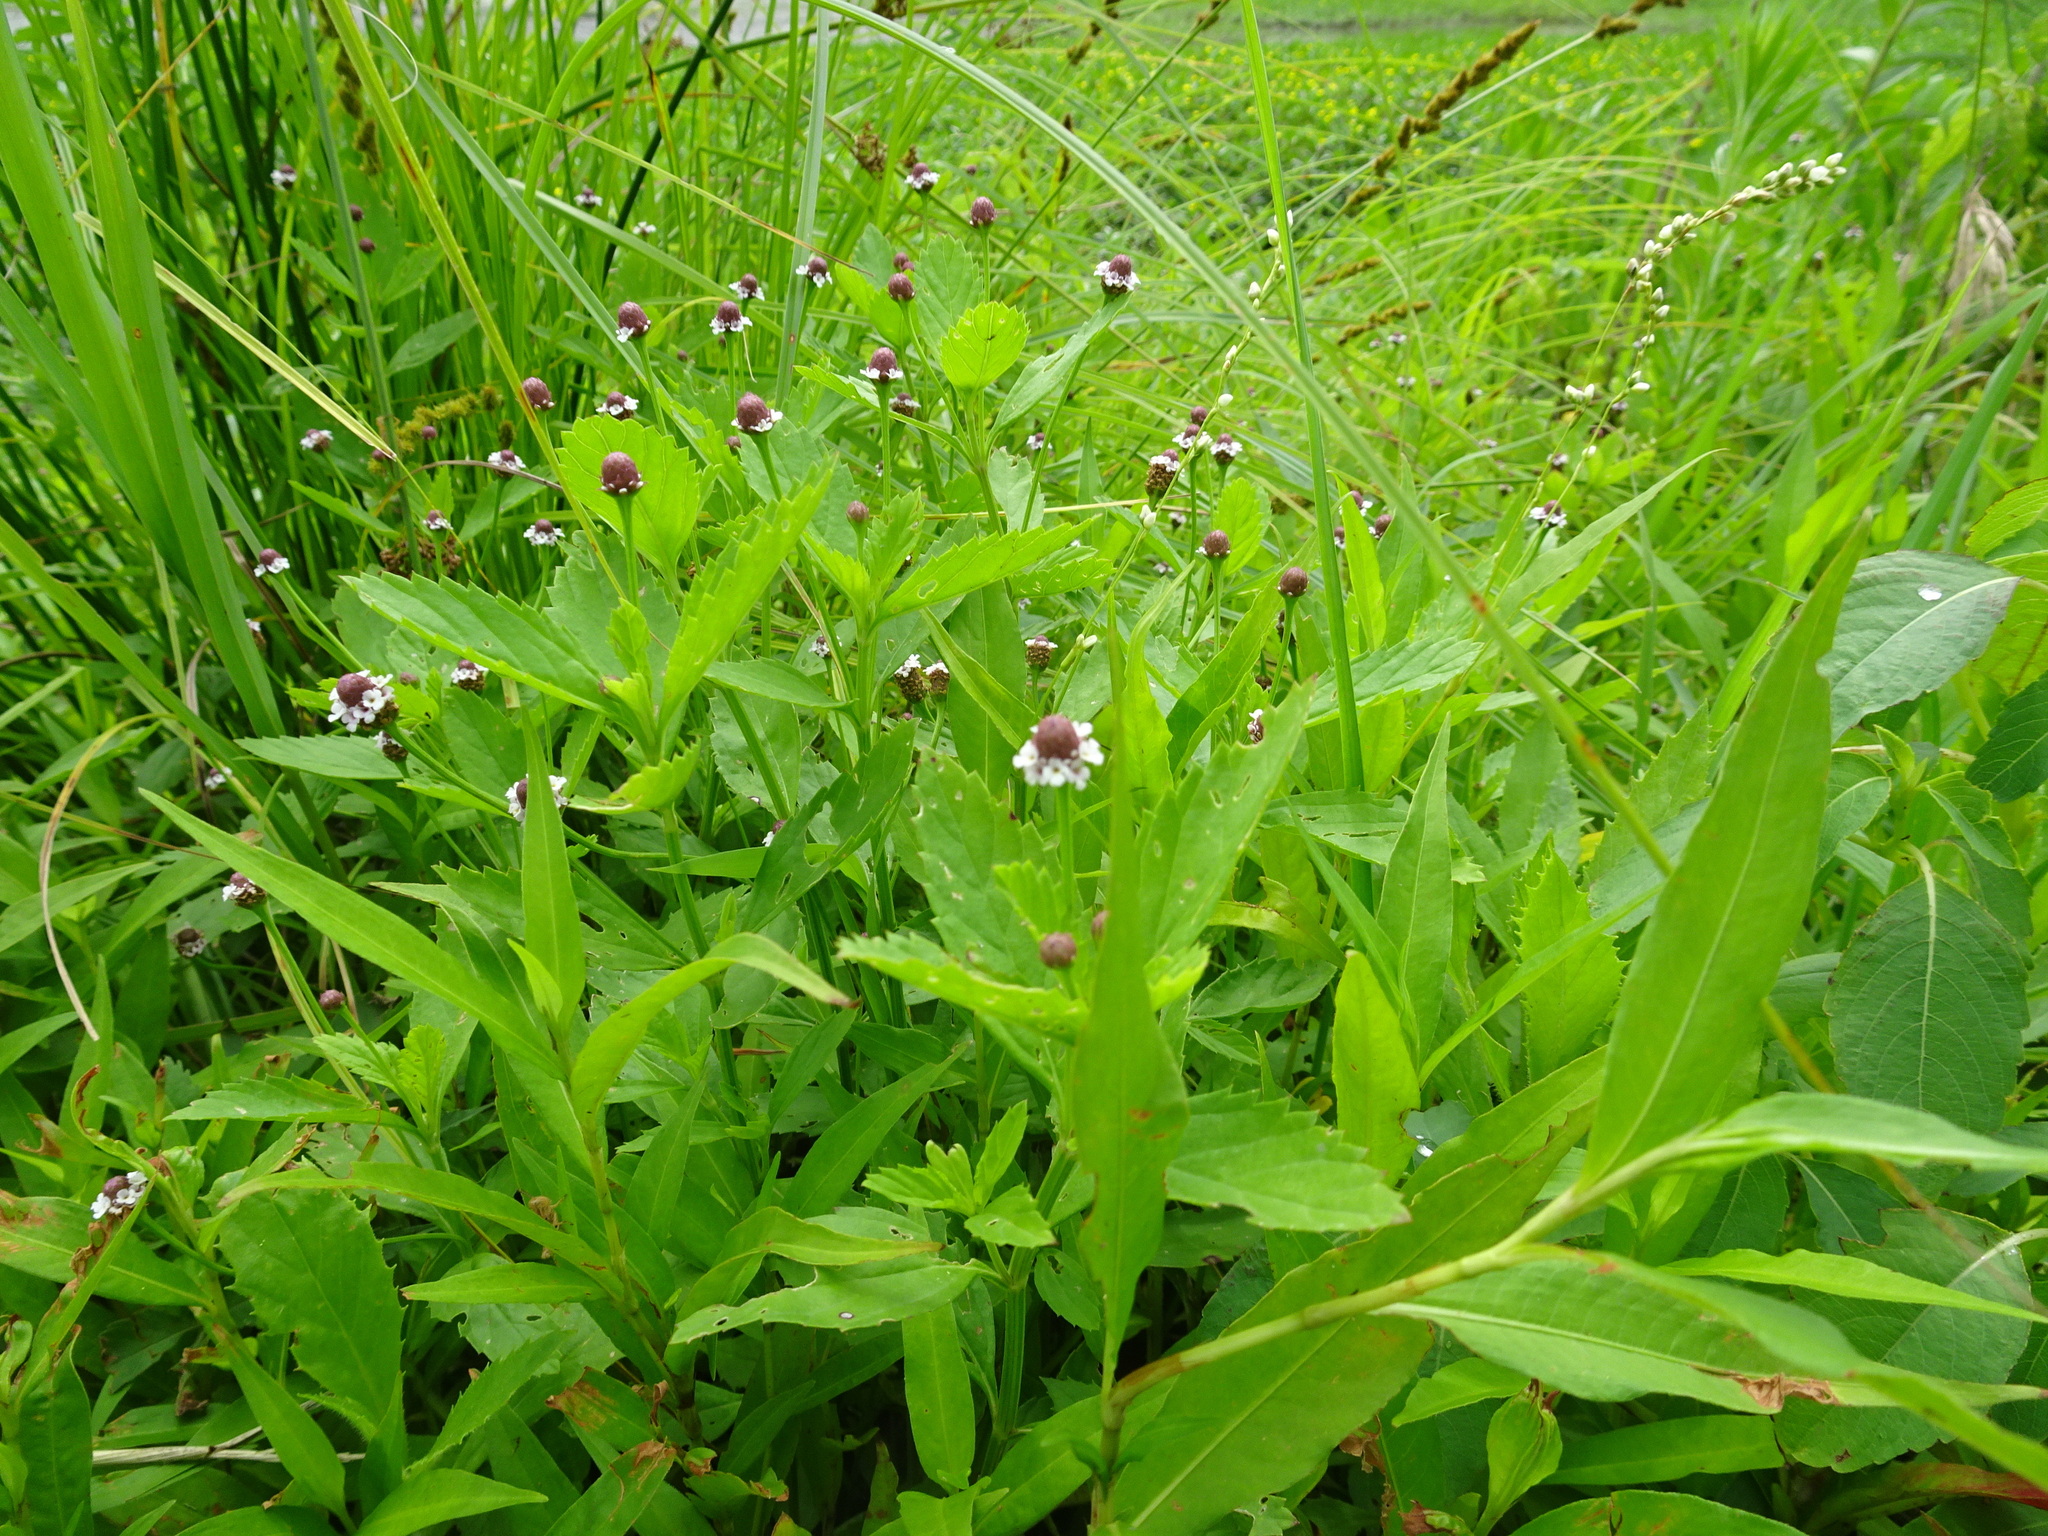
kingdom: Plantae
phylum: Tracheophyta
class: Magnoliopsida
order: Lamiales
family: Verbenaceae
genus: Phyla
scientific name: Phyla lanceolata
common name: Northern fogfruit
